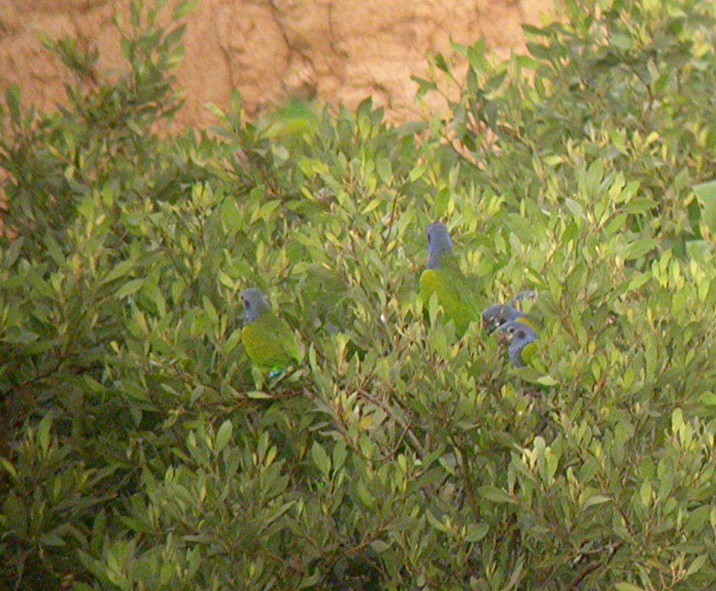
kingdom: Animalia
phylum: Chordata
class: Aves
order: Psittaciformes
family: Psittacidae
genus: Pionus
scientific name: Pionus menstruus
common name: Blue-headed parrot
